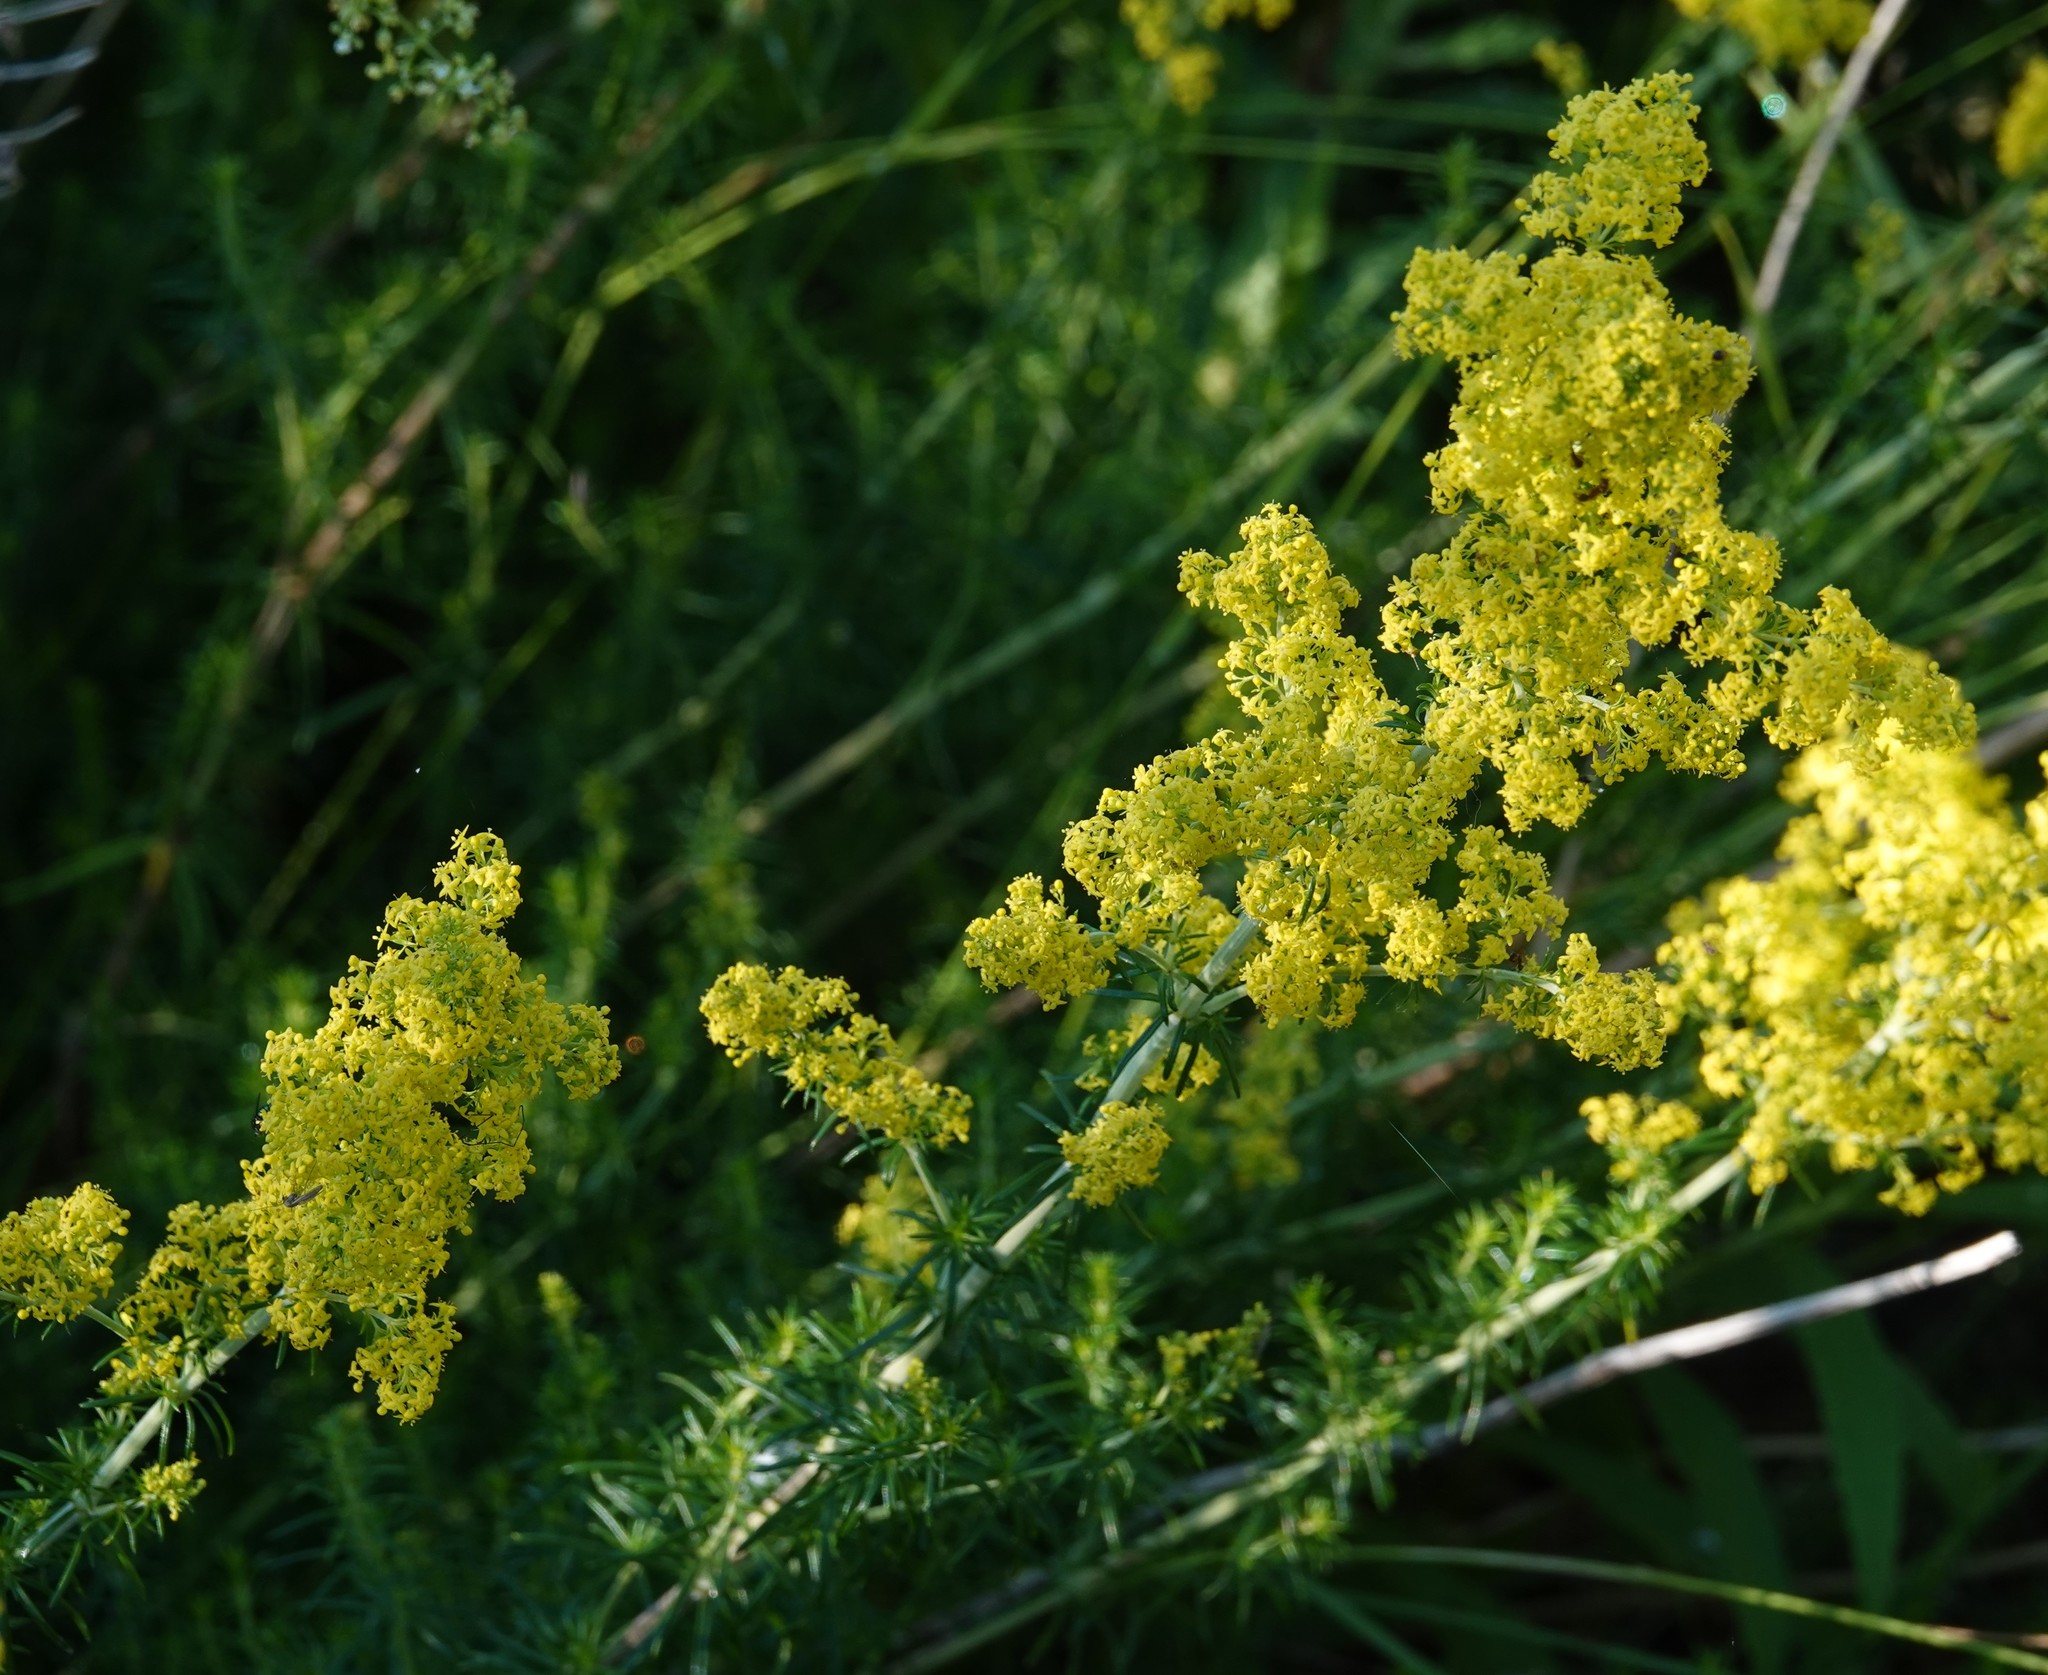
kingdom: Plantae
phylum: Tracheophyta
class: Magnoliopsida
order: Gentianales
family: Rubiaceae
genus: Galium
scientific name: Galium verum
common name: Lady's bedstraw
